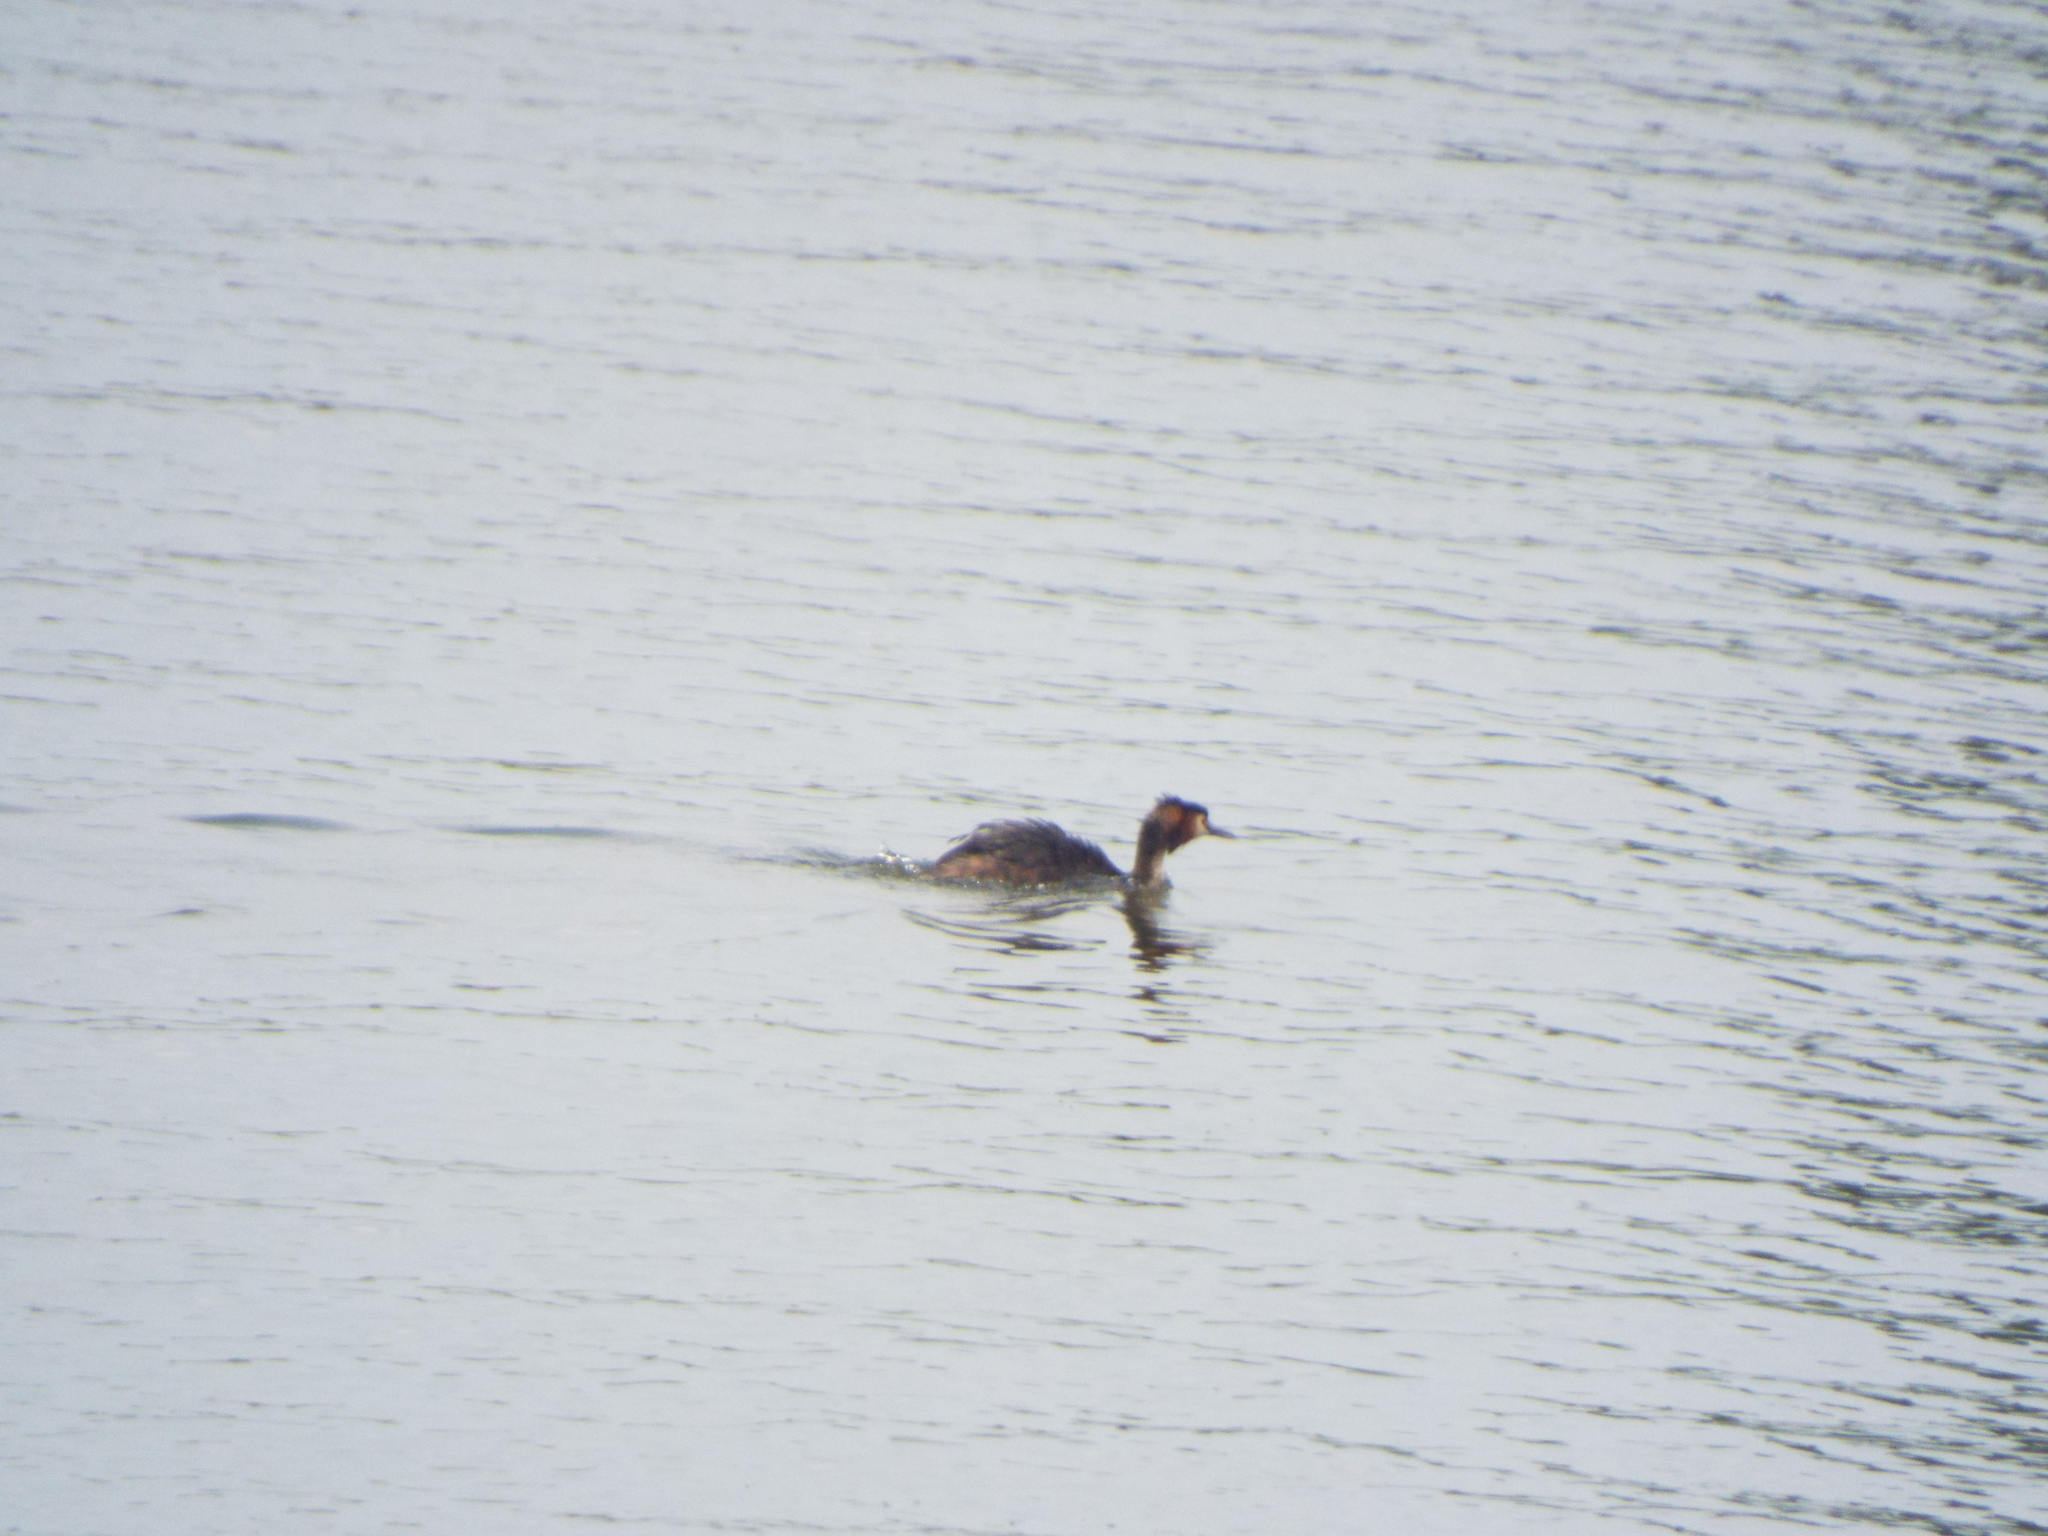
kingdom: Animalia
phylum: Chordata
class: Aves
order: Podicipediformes
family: Podicipedidae
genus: Podiceps
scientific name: Podiceps cristatus
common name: Great crested grebe
